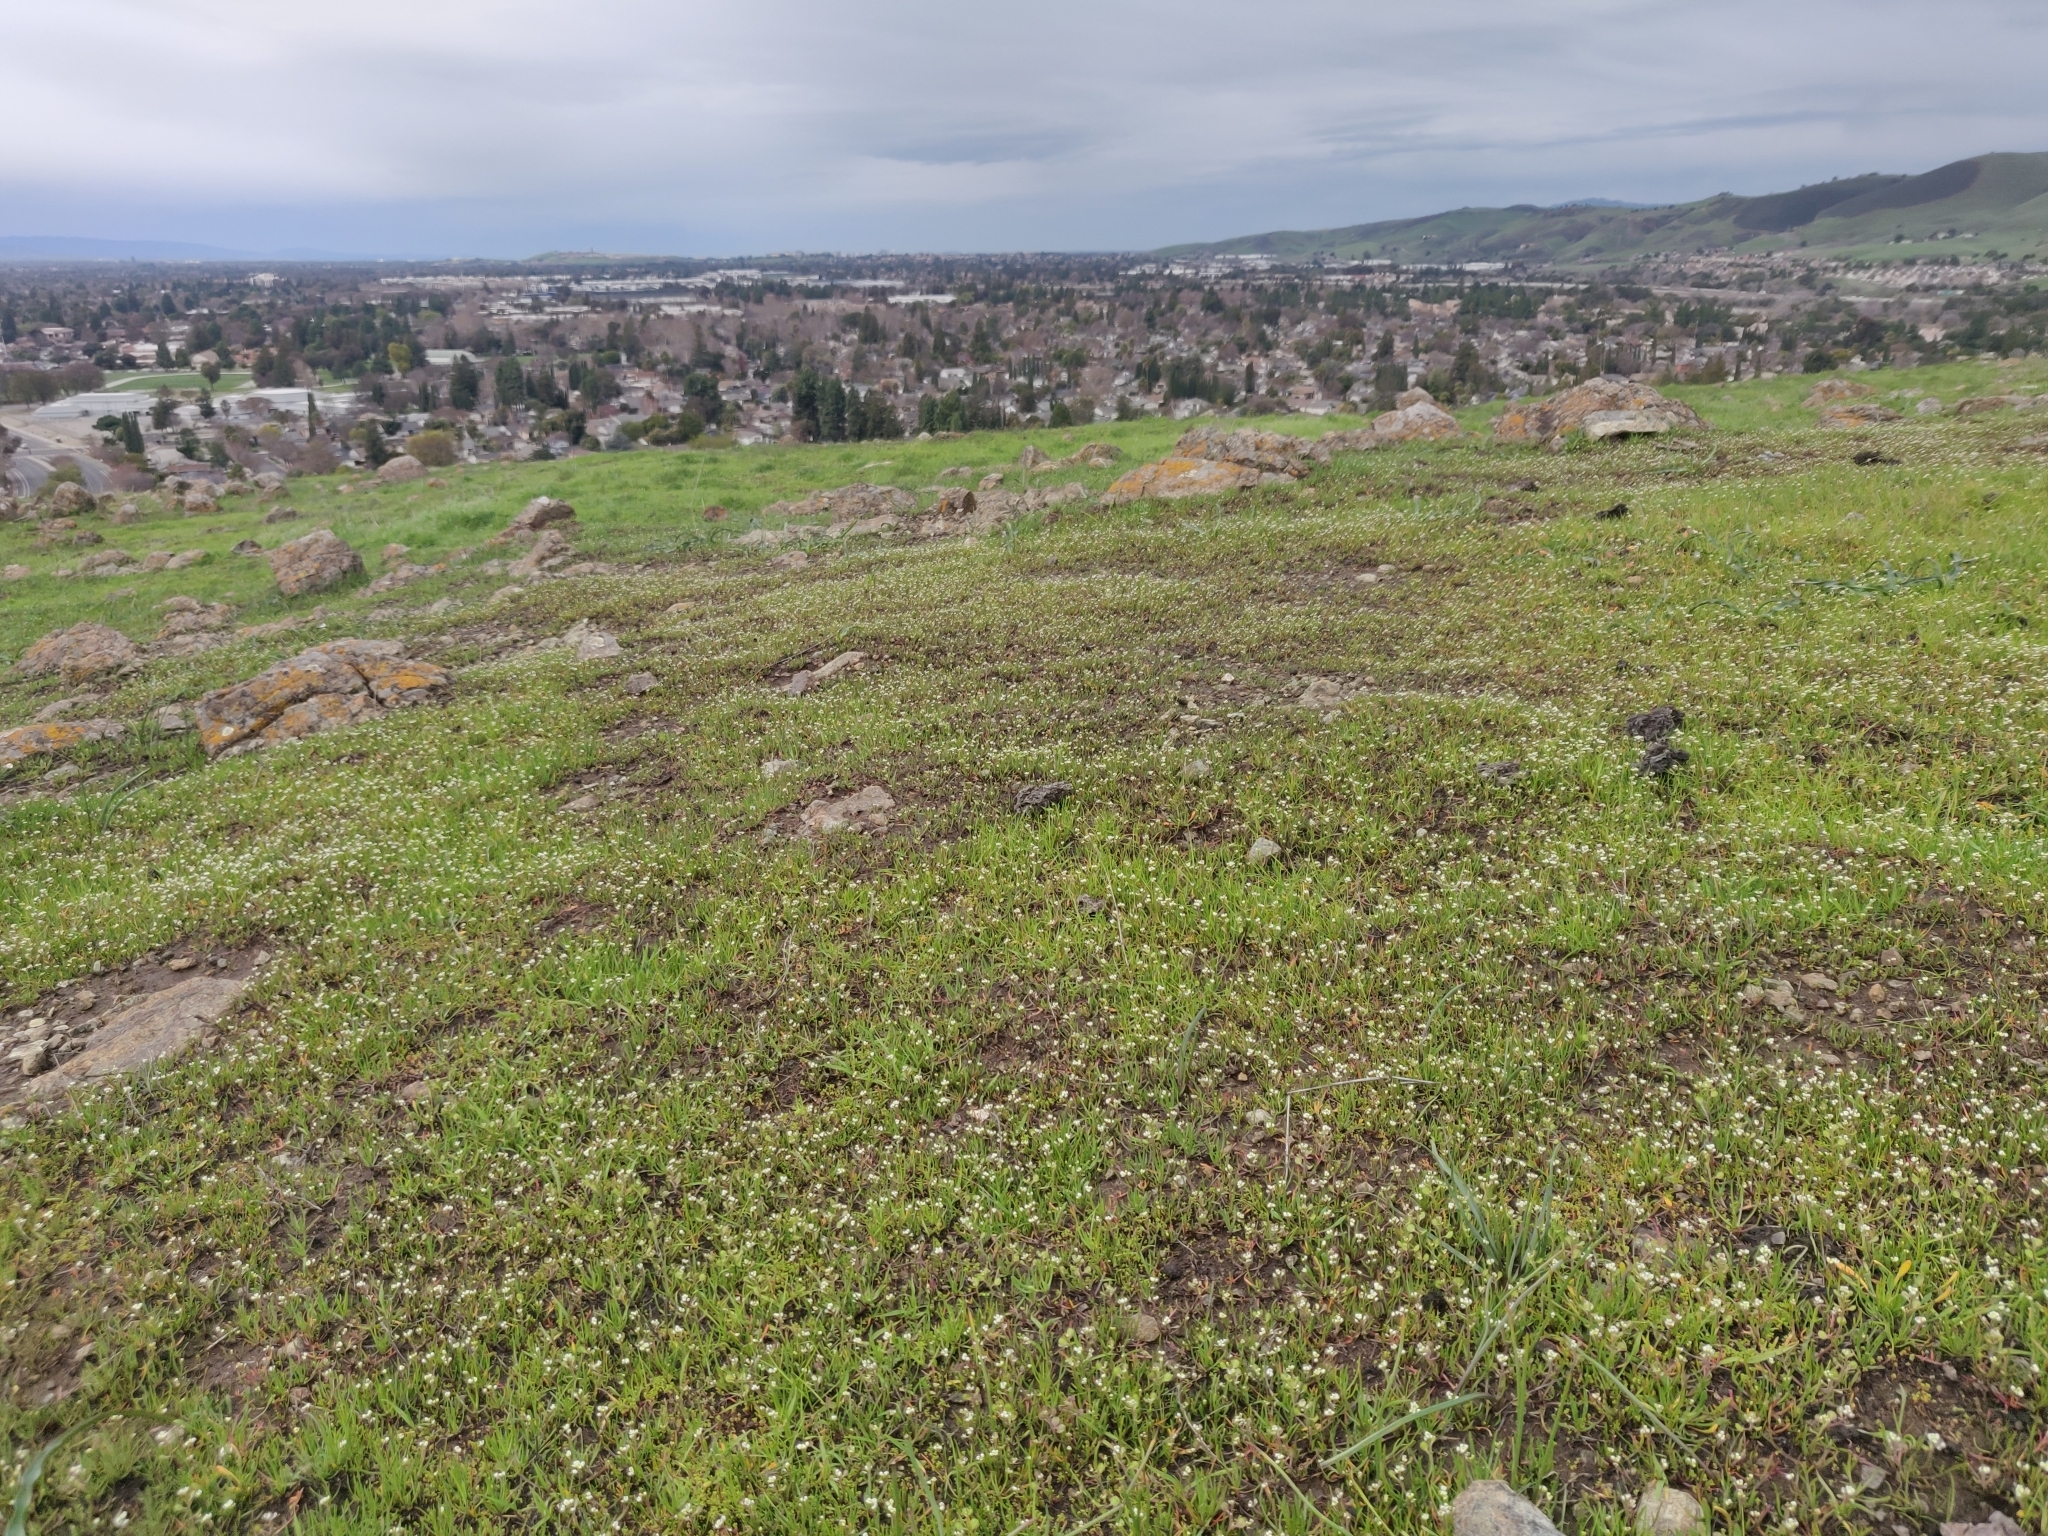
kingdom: Plantae
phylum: Tracheophyta
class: Magnoliopsida
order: Brassicales
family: Brassicaceae
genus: Lepidium
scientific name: Lepidium nitidum
